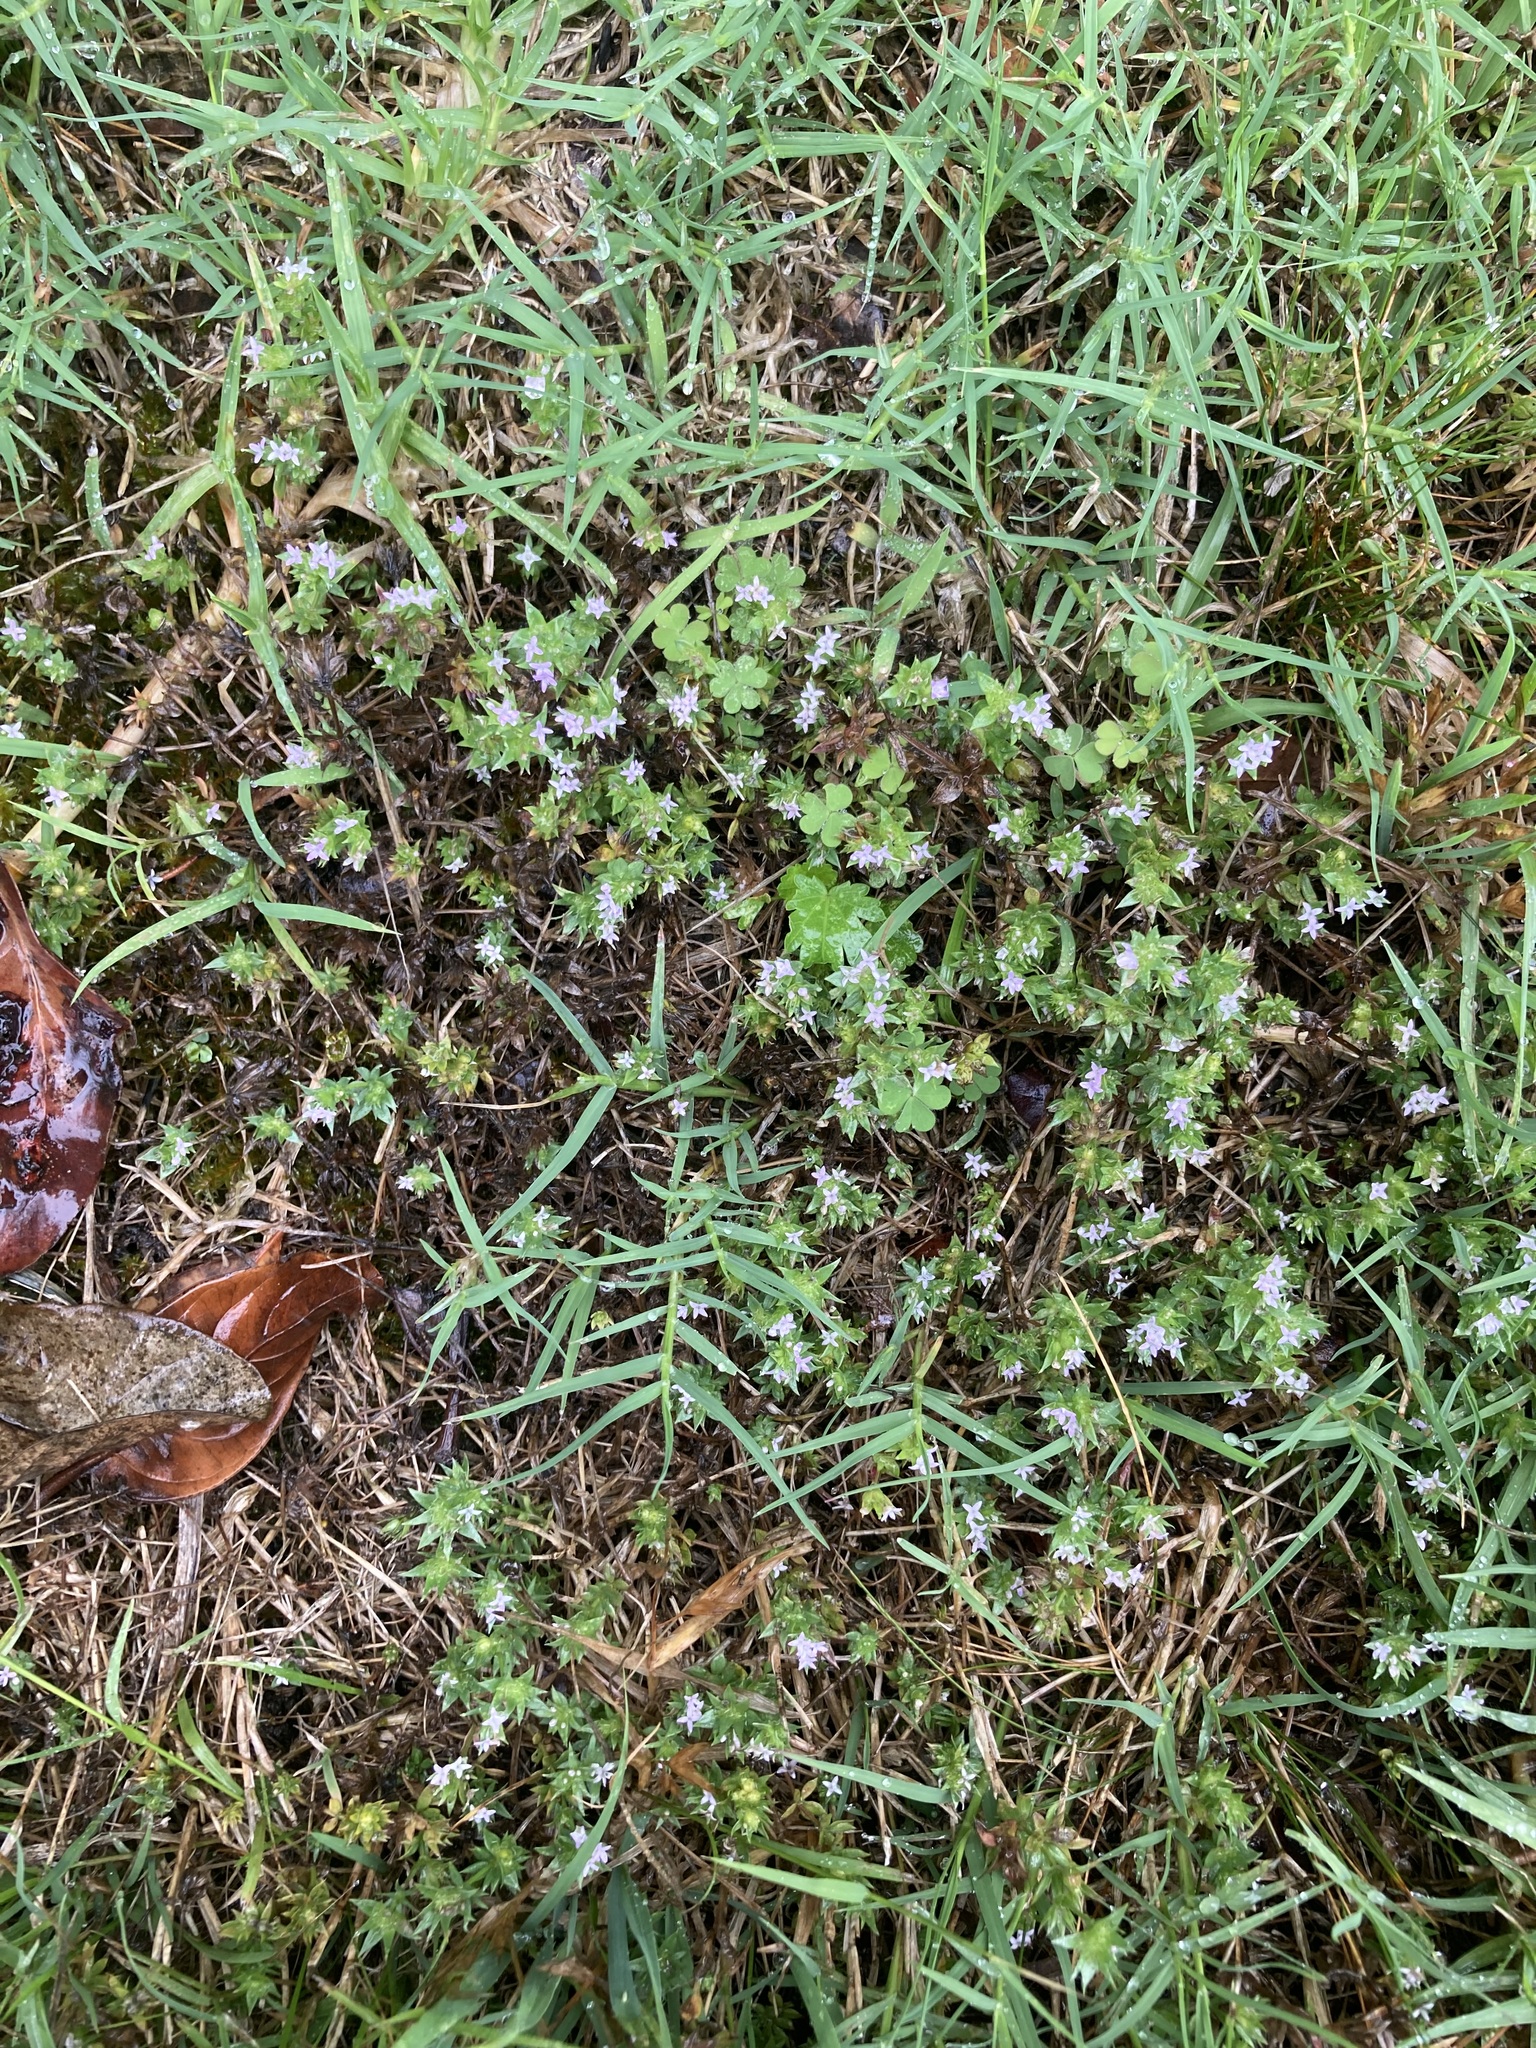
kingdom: Plantae
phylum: Tracheophyta
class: Magnoliopsida
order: Gentianales
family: Rubiaceae
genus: Sherardia
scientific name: Sherardia arvensis
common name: Field madder
